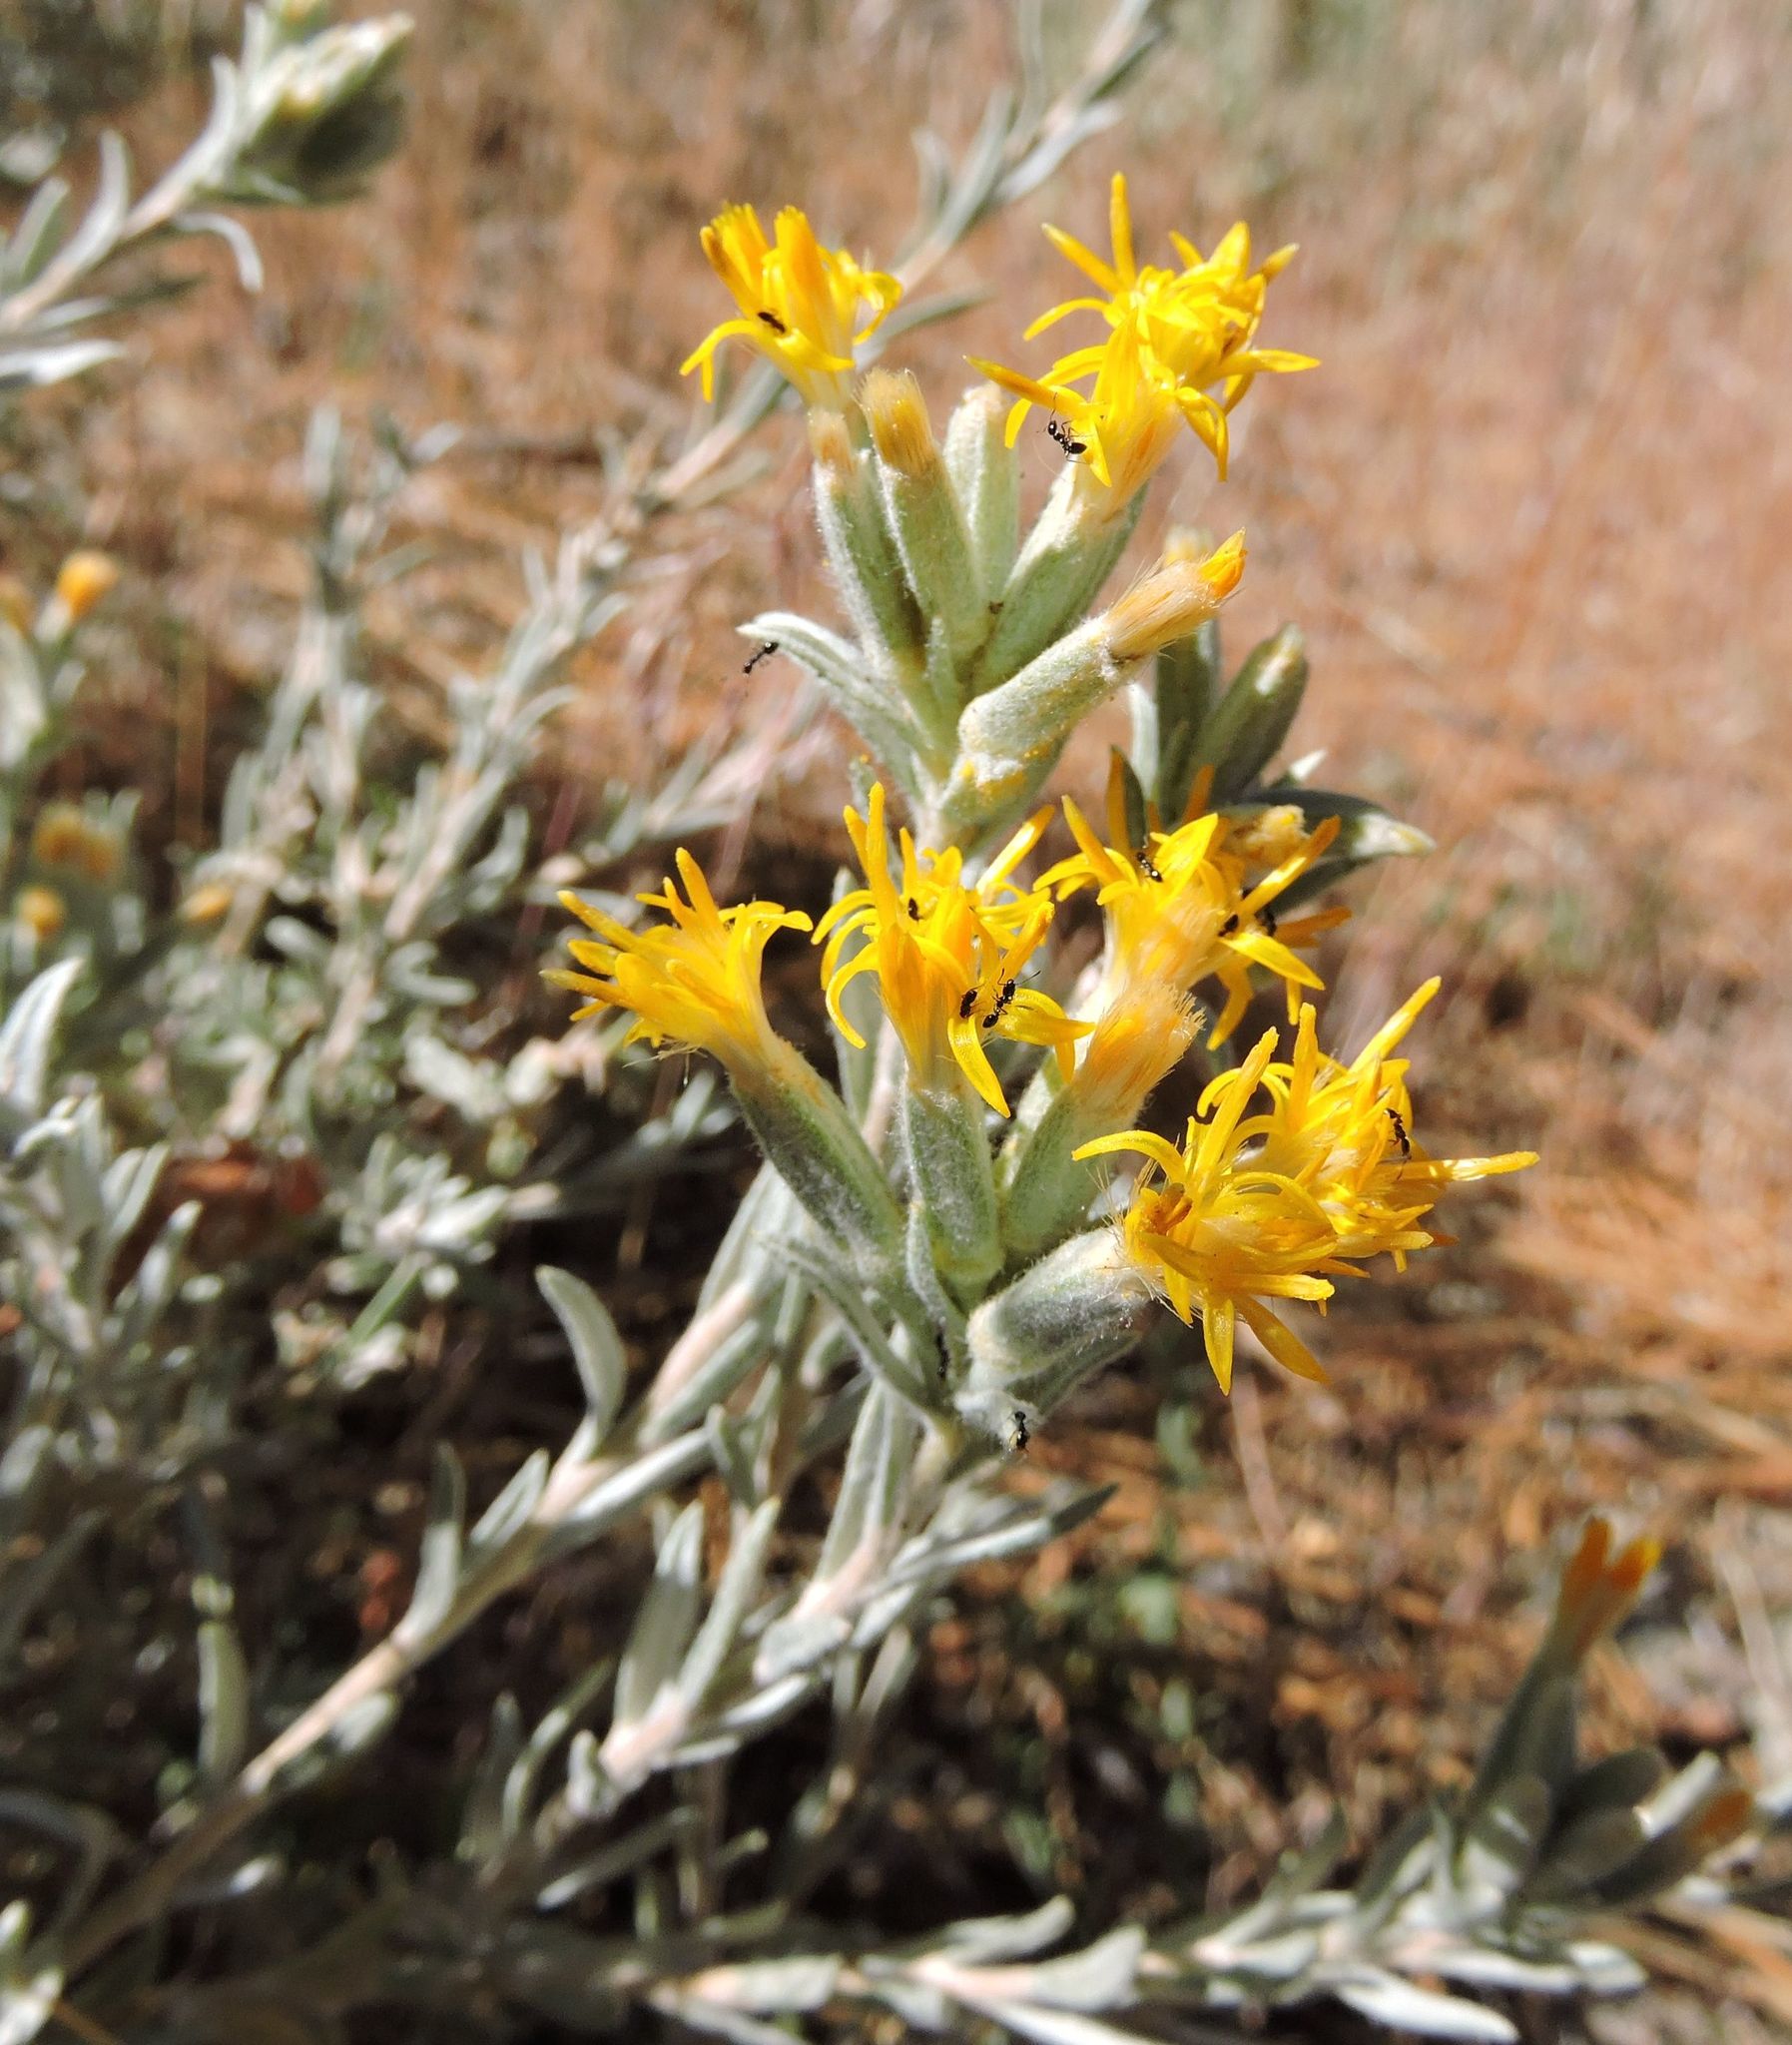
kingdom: Plantae
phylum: Tracheophyta
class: Magnoliopsida
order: Asterales
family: Asteraceae
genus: Tetradymia
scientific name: Tetradymia canescens
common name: Spineless horsebrush
